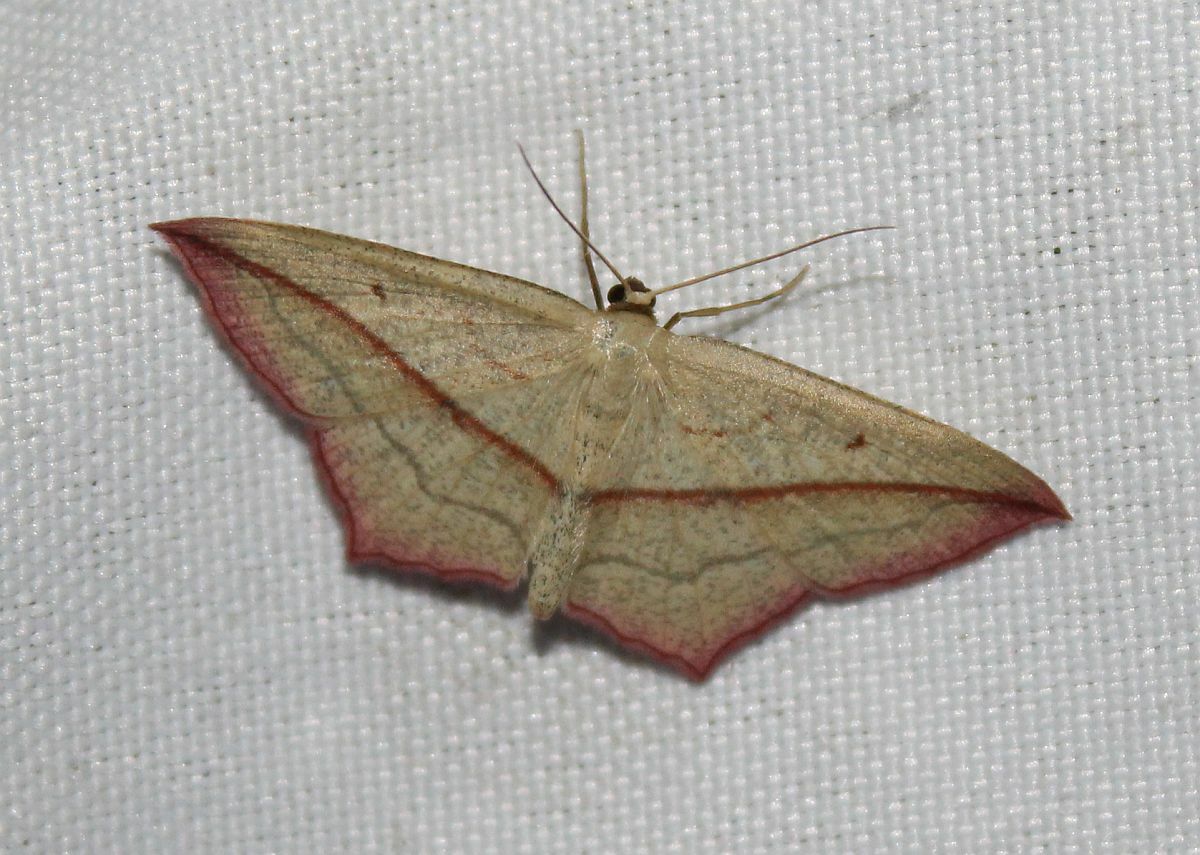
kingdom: Animalia
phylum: Arthropoda
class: Insecta
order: Lepidoptera
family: Geometridae
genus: Timandra
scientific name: Timandra comae
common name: Blood-vein
